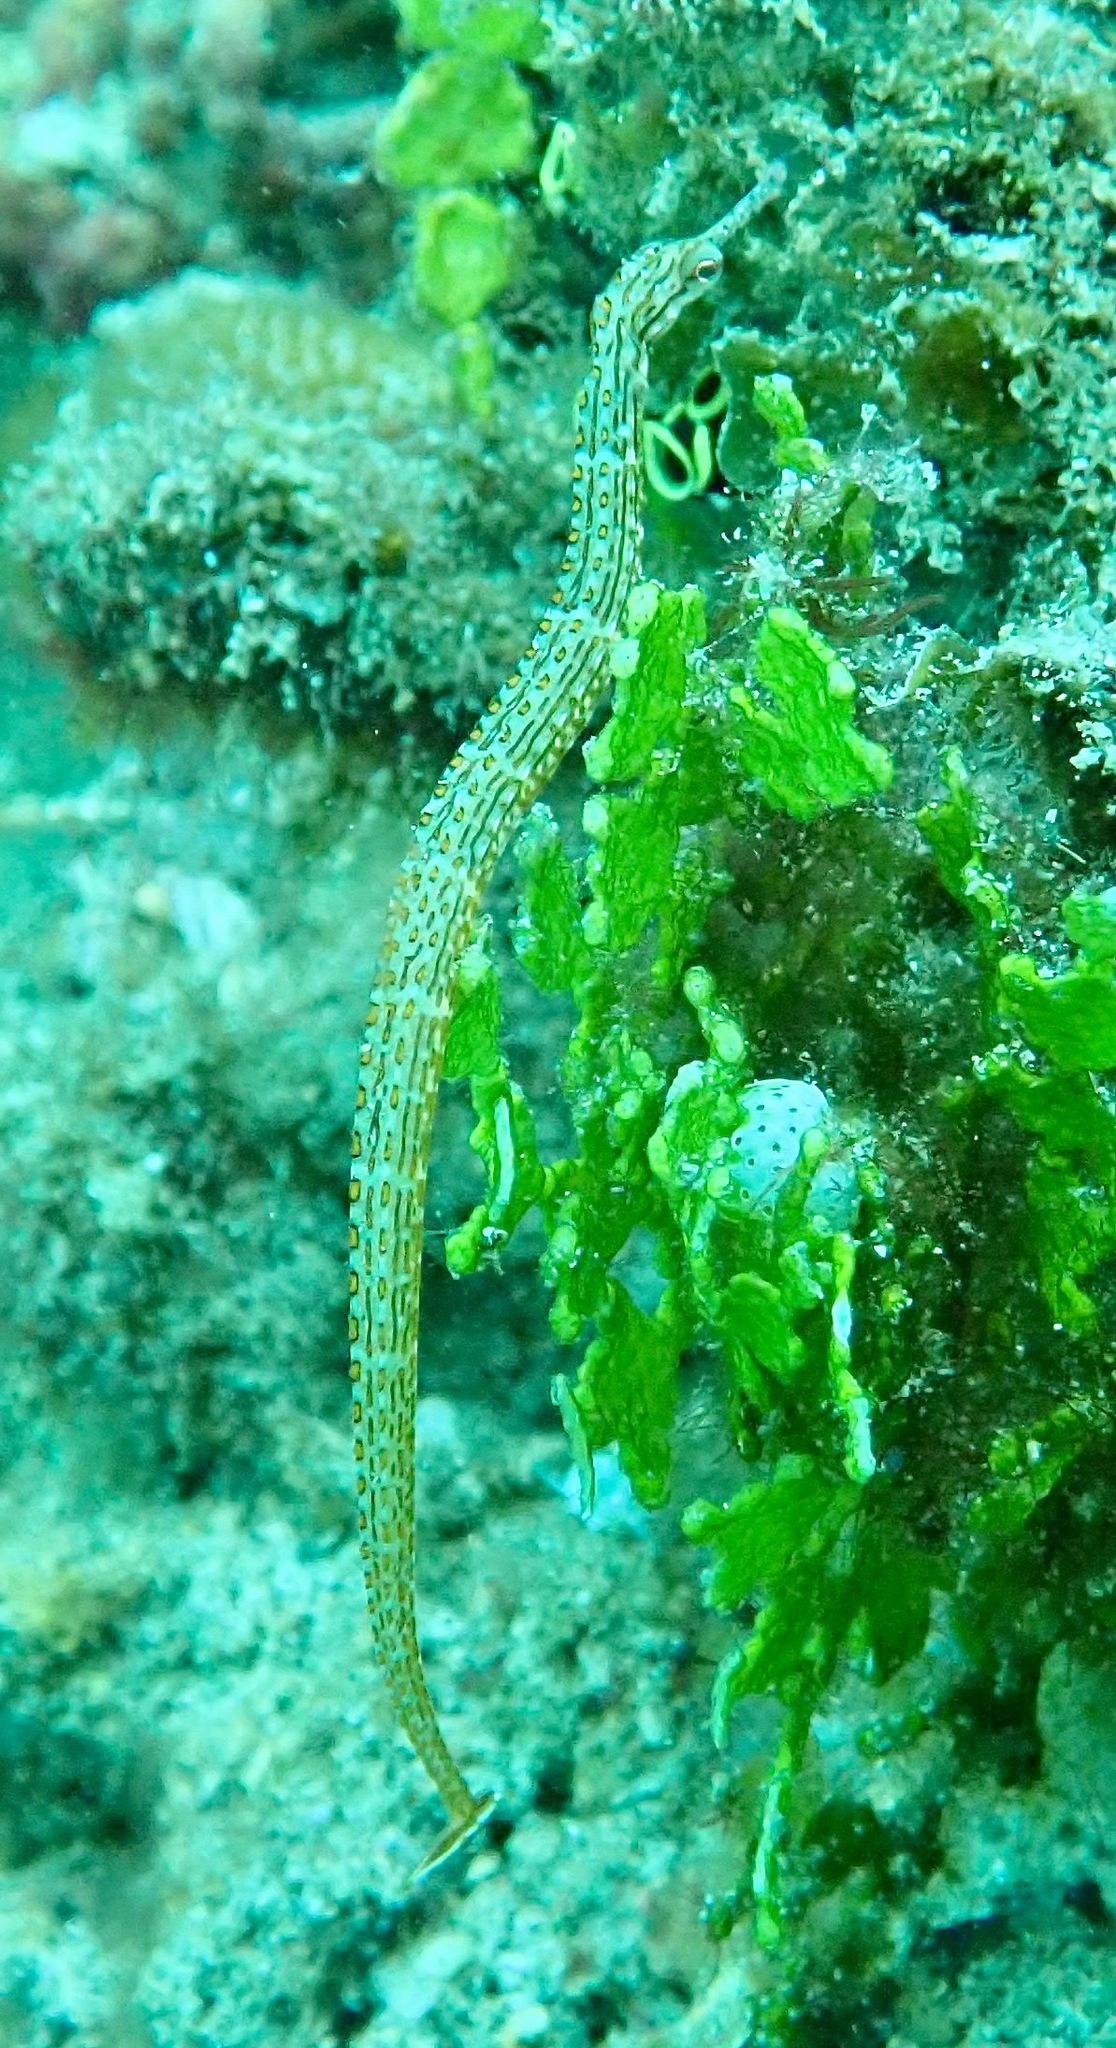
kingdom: Animalia
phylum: Chordata
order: Syngnathiformes
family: Syngnathidae
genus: Corythoichthys
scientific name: Corythoichthys ocellatus
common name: Ocellated pipefish
